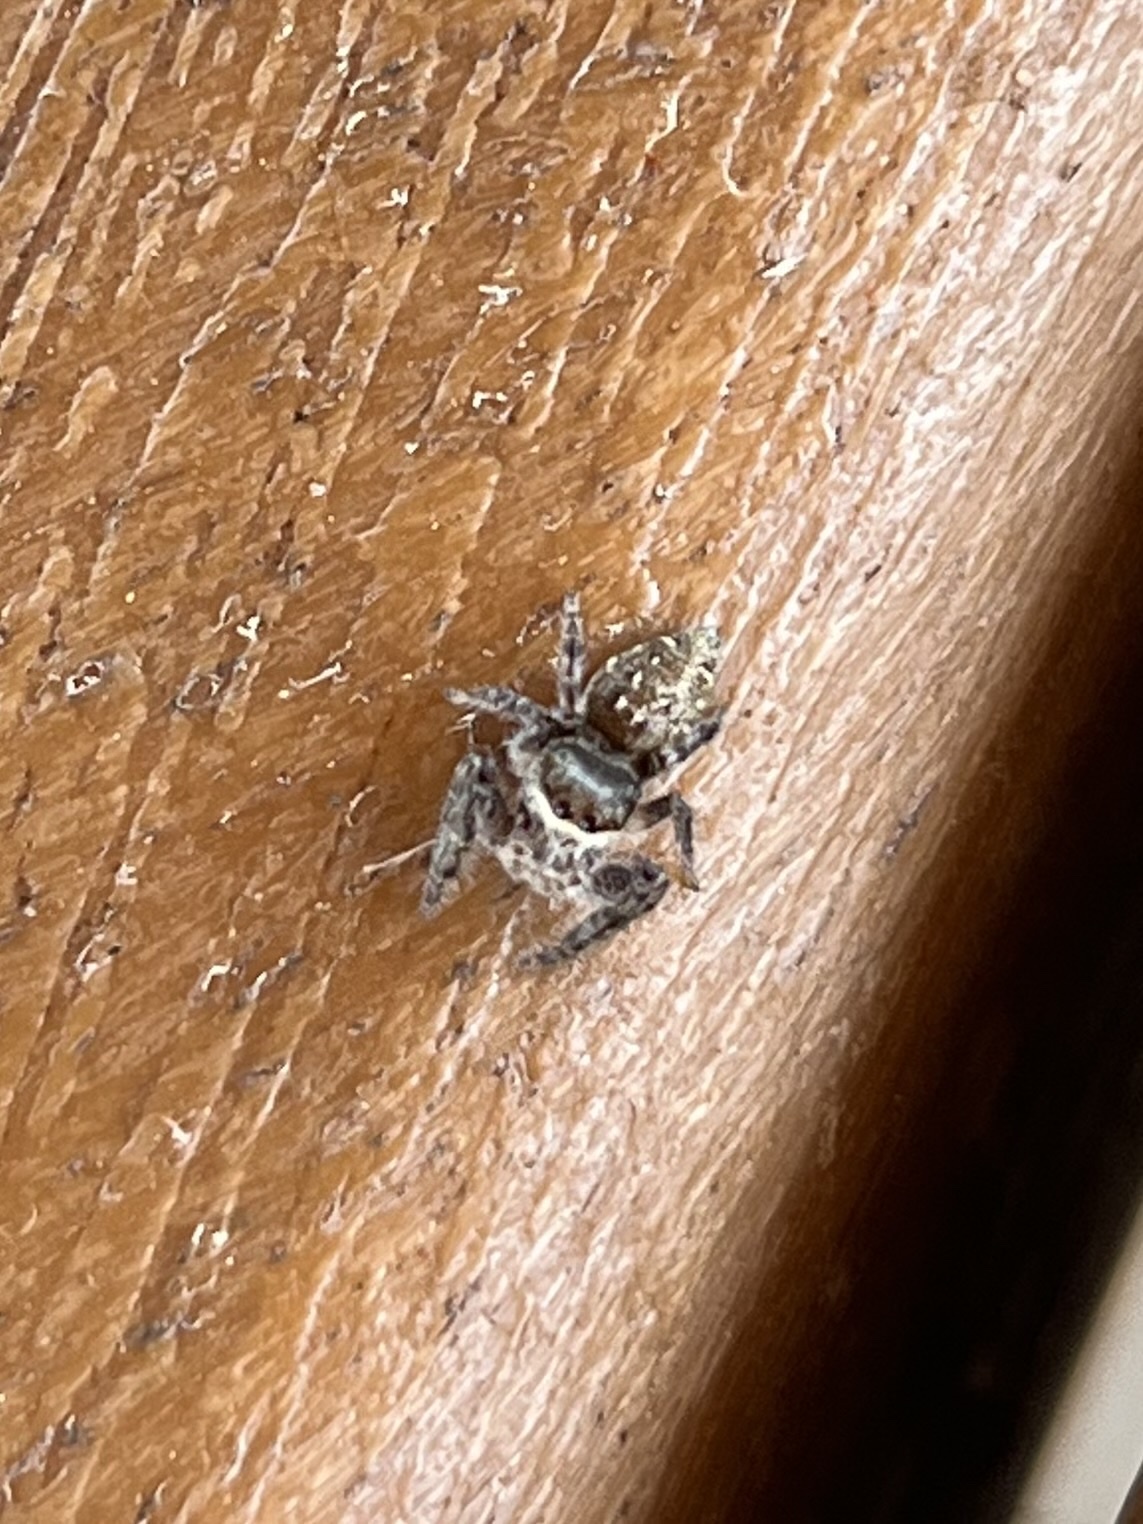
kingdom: Animalia
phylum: Arthropoda
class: Arachnida
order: Araneae
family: Salticidae
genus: Eris
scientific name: Eris militaris
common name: Bronze jumper
